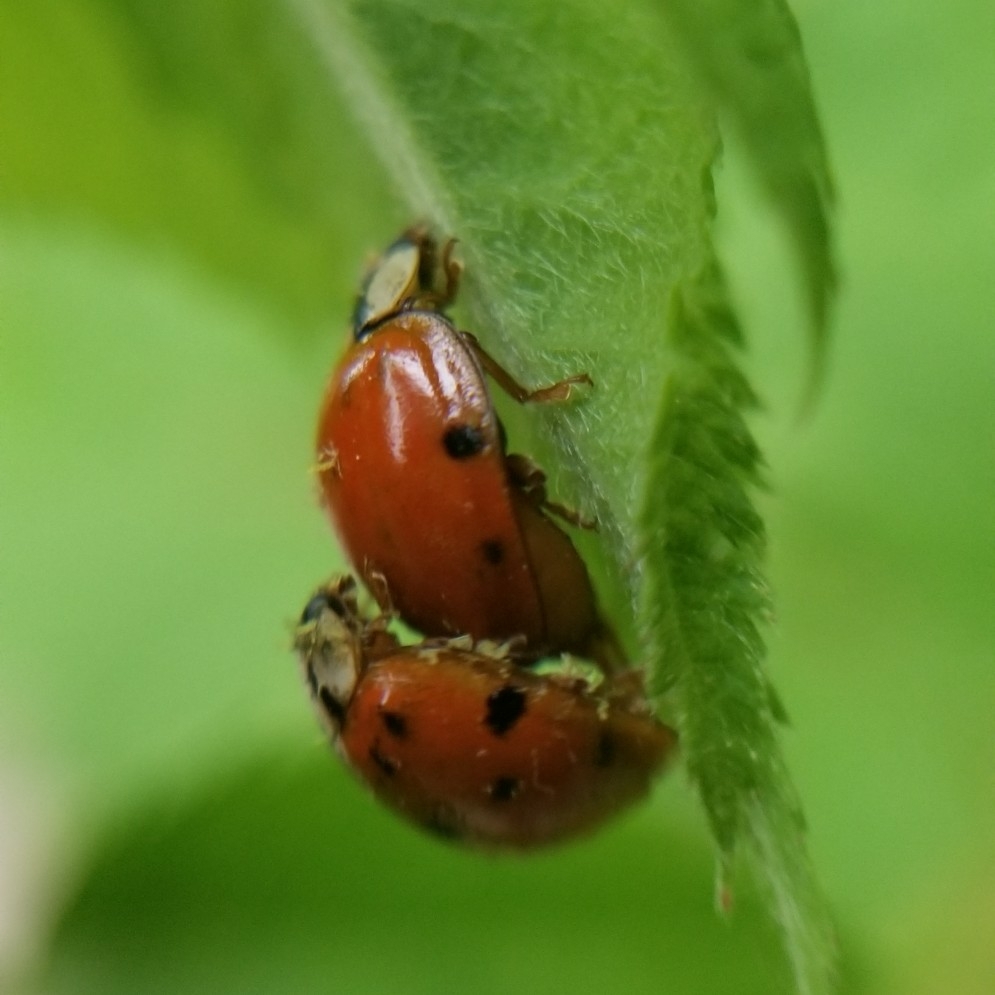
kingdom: Animalia
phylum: Arthropoda
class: Insecta
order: Coleoptera
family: Coccinellidae
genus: Harmonia
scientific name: Harmonia axyridis
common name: Harlequin ladybird
